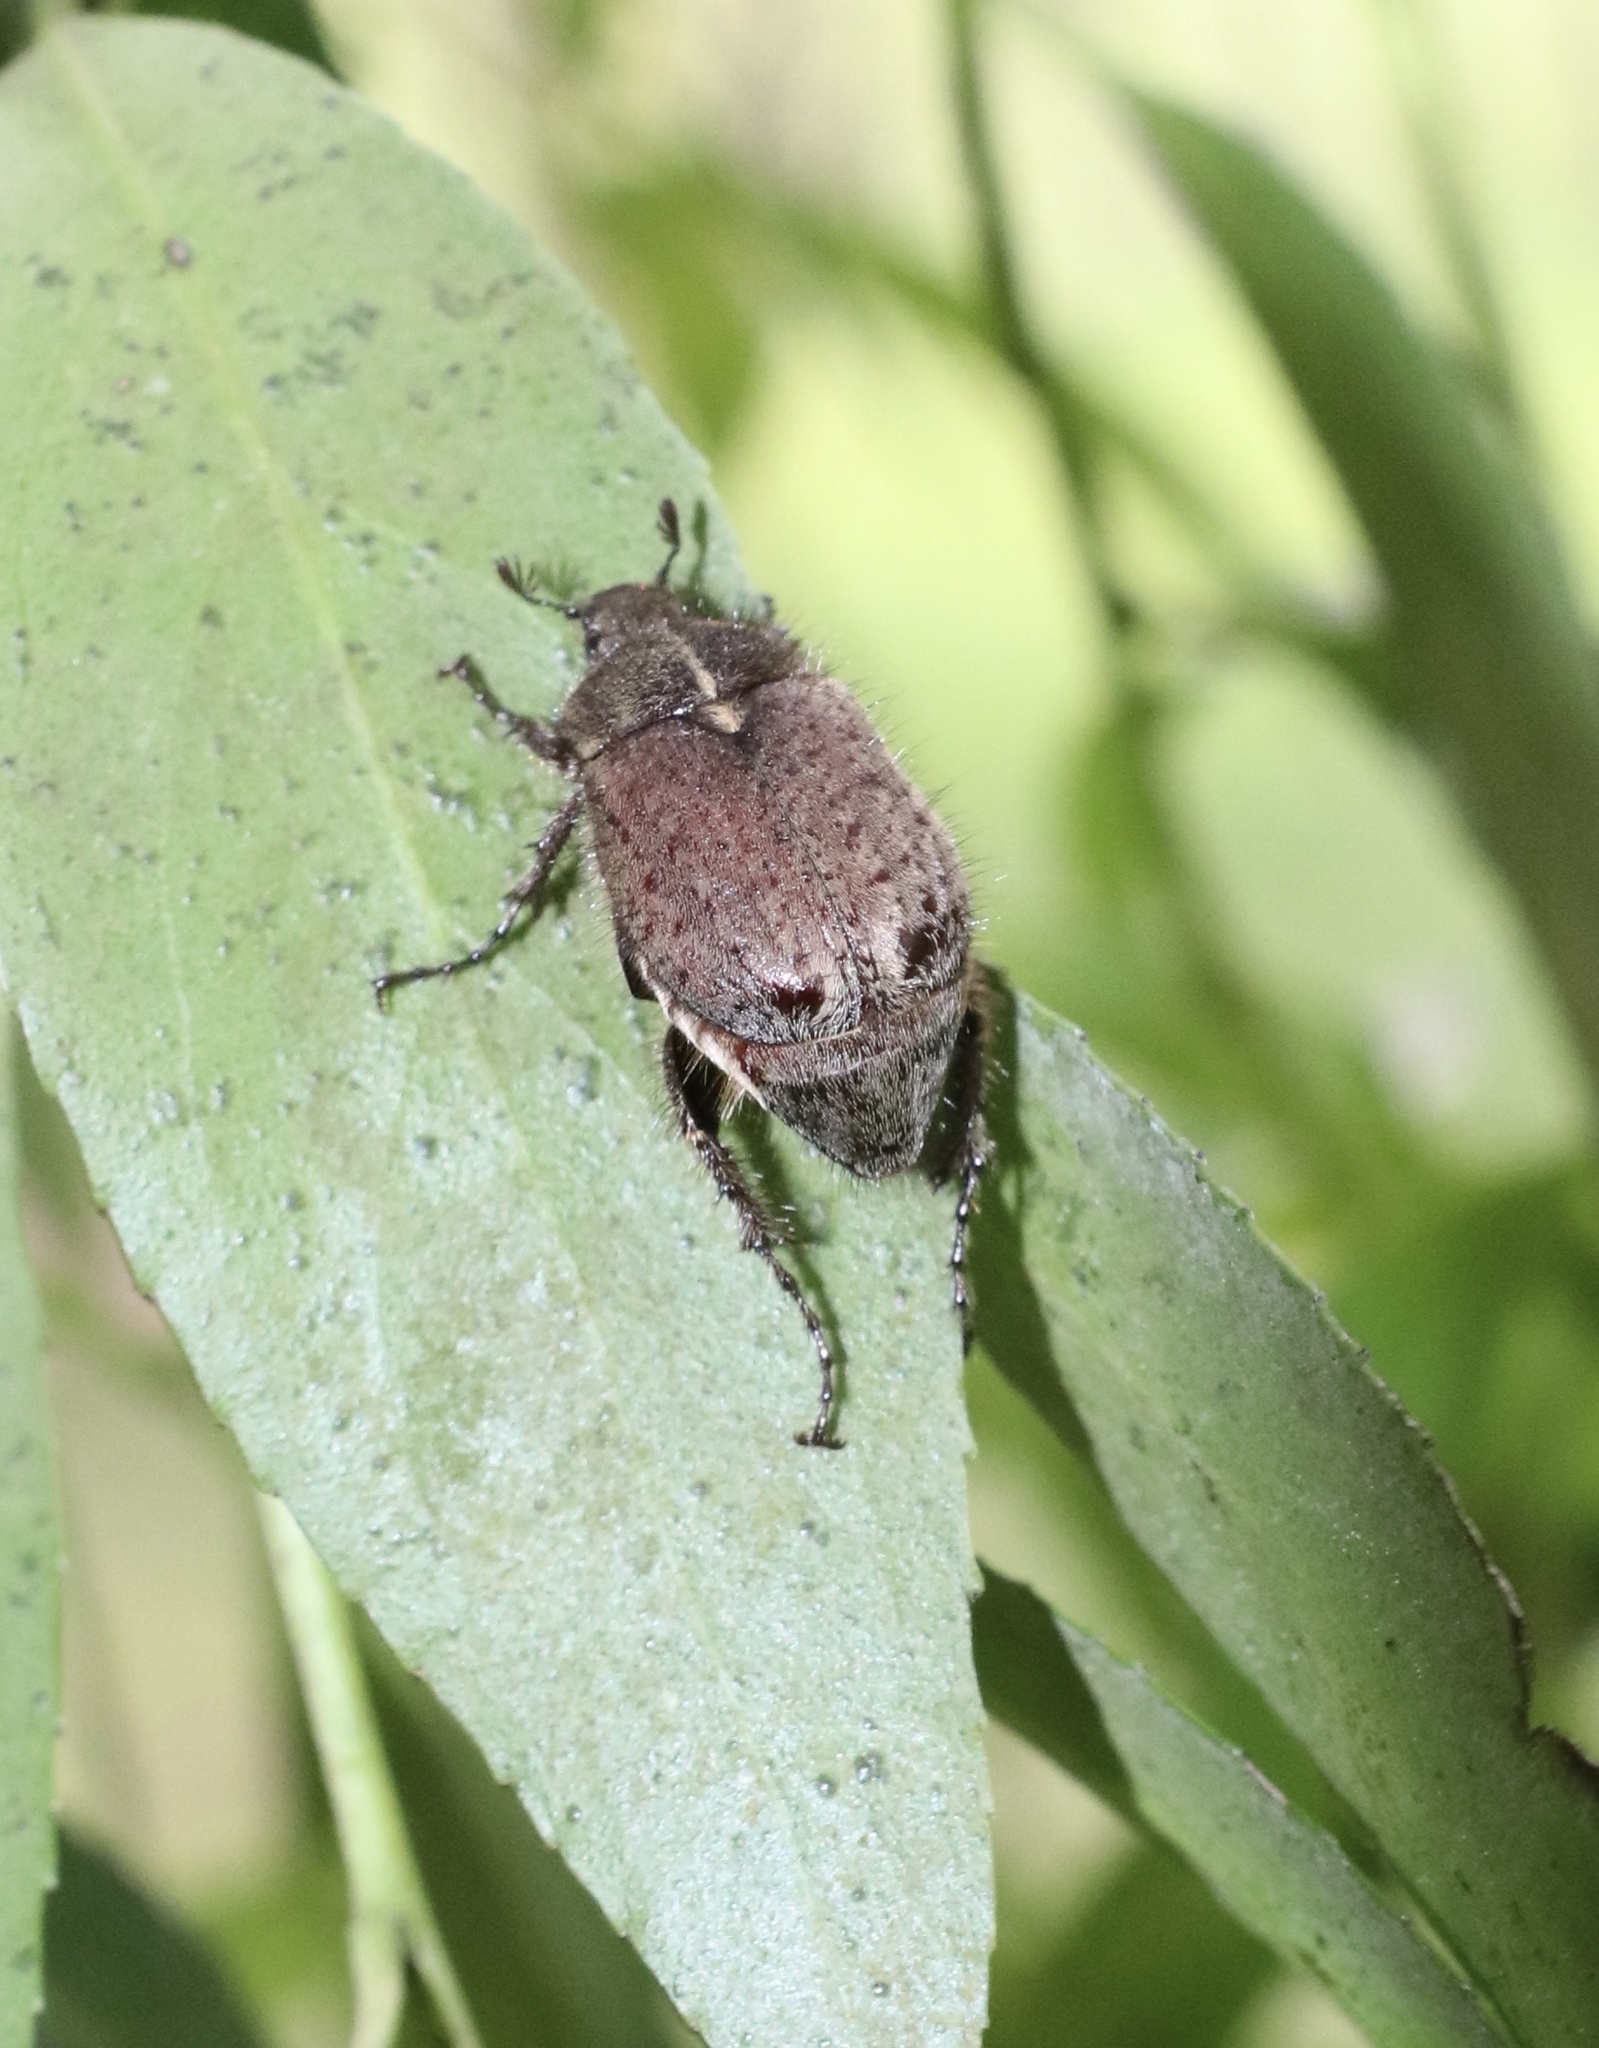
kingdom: Animalia
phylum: Arthropoda
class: Insecta
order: Coleoptera
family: Scarabaeidae
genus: Diaphylla
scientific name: Diaphylla granulata
